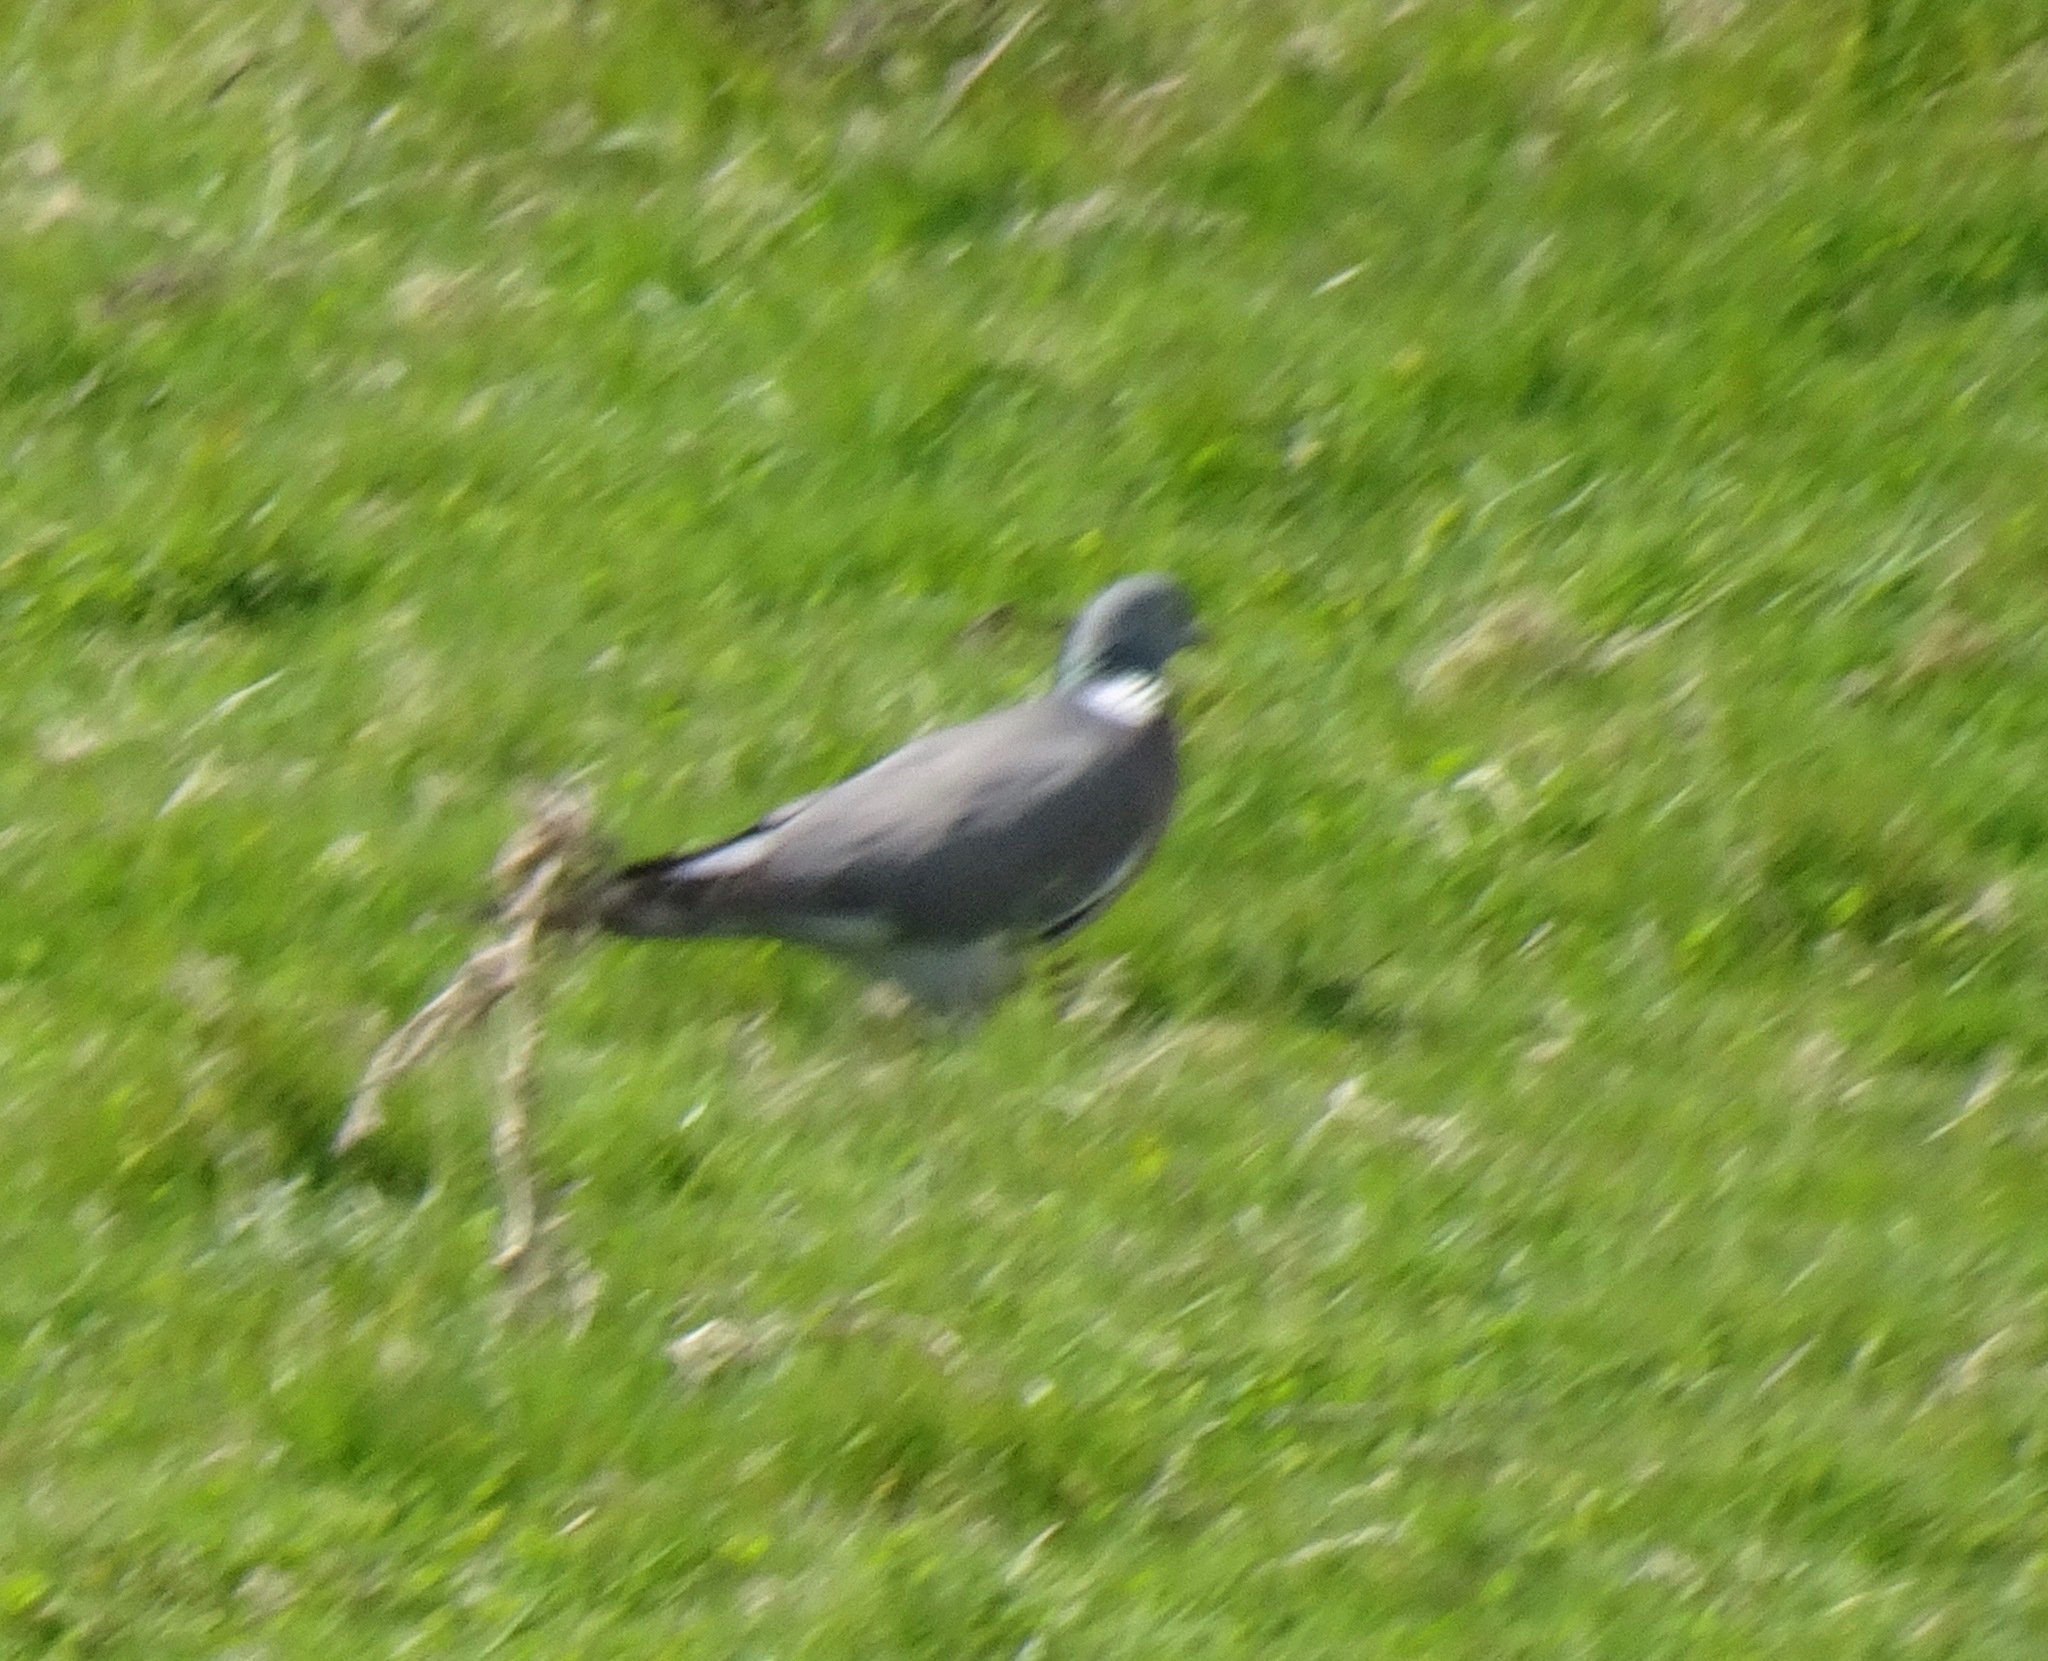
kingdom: Animalia
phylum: Chordata
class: Aves
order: Columbiformes
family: Columbidae
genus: Columba
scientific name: Columba palumbus
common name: Common wood pigeon
